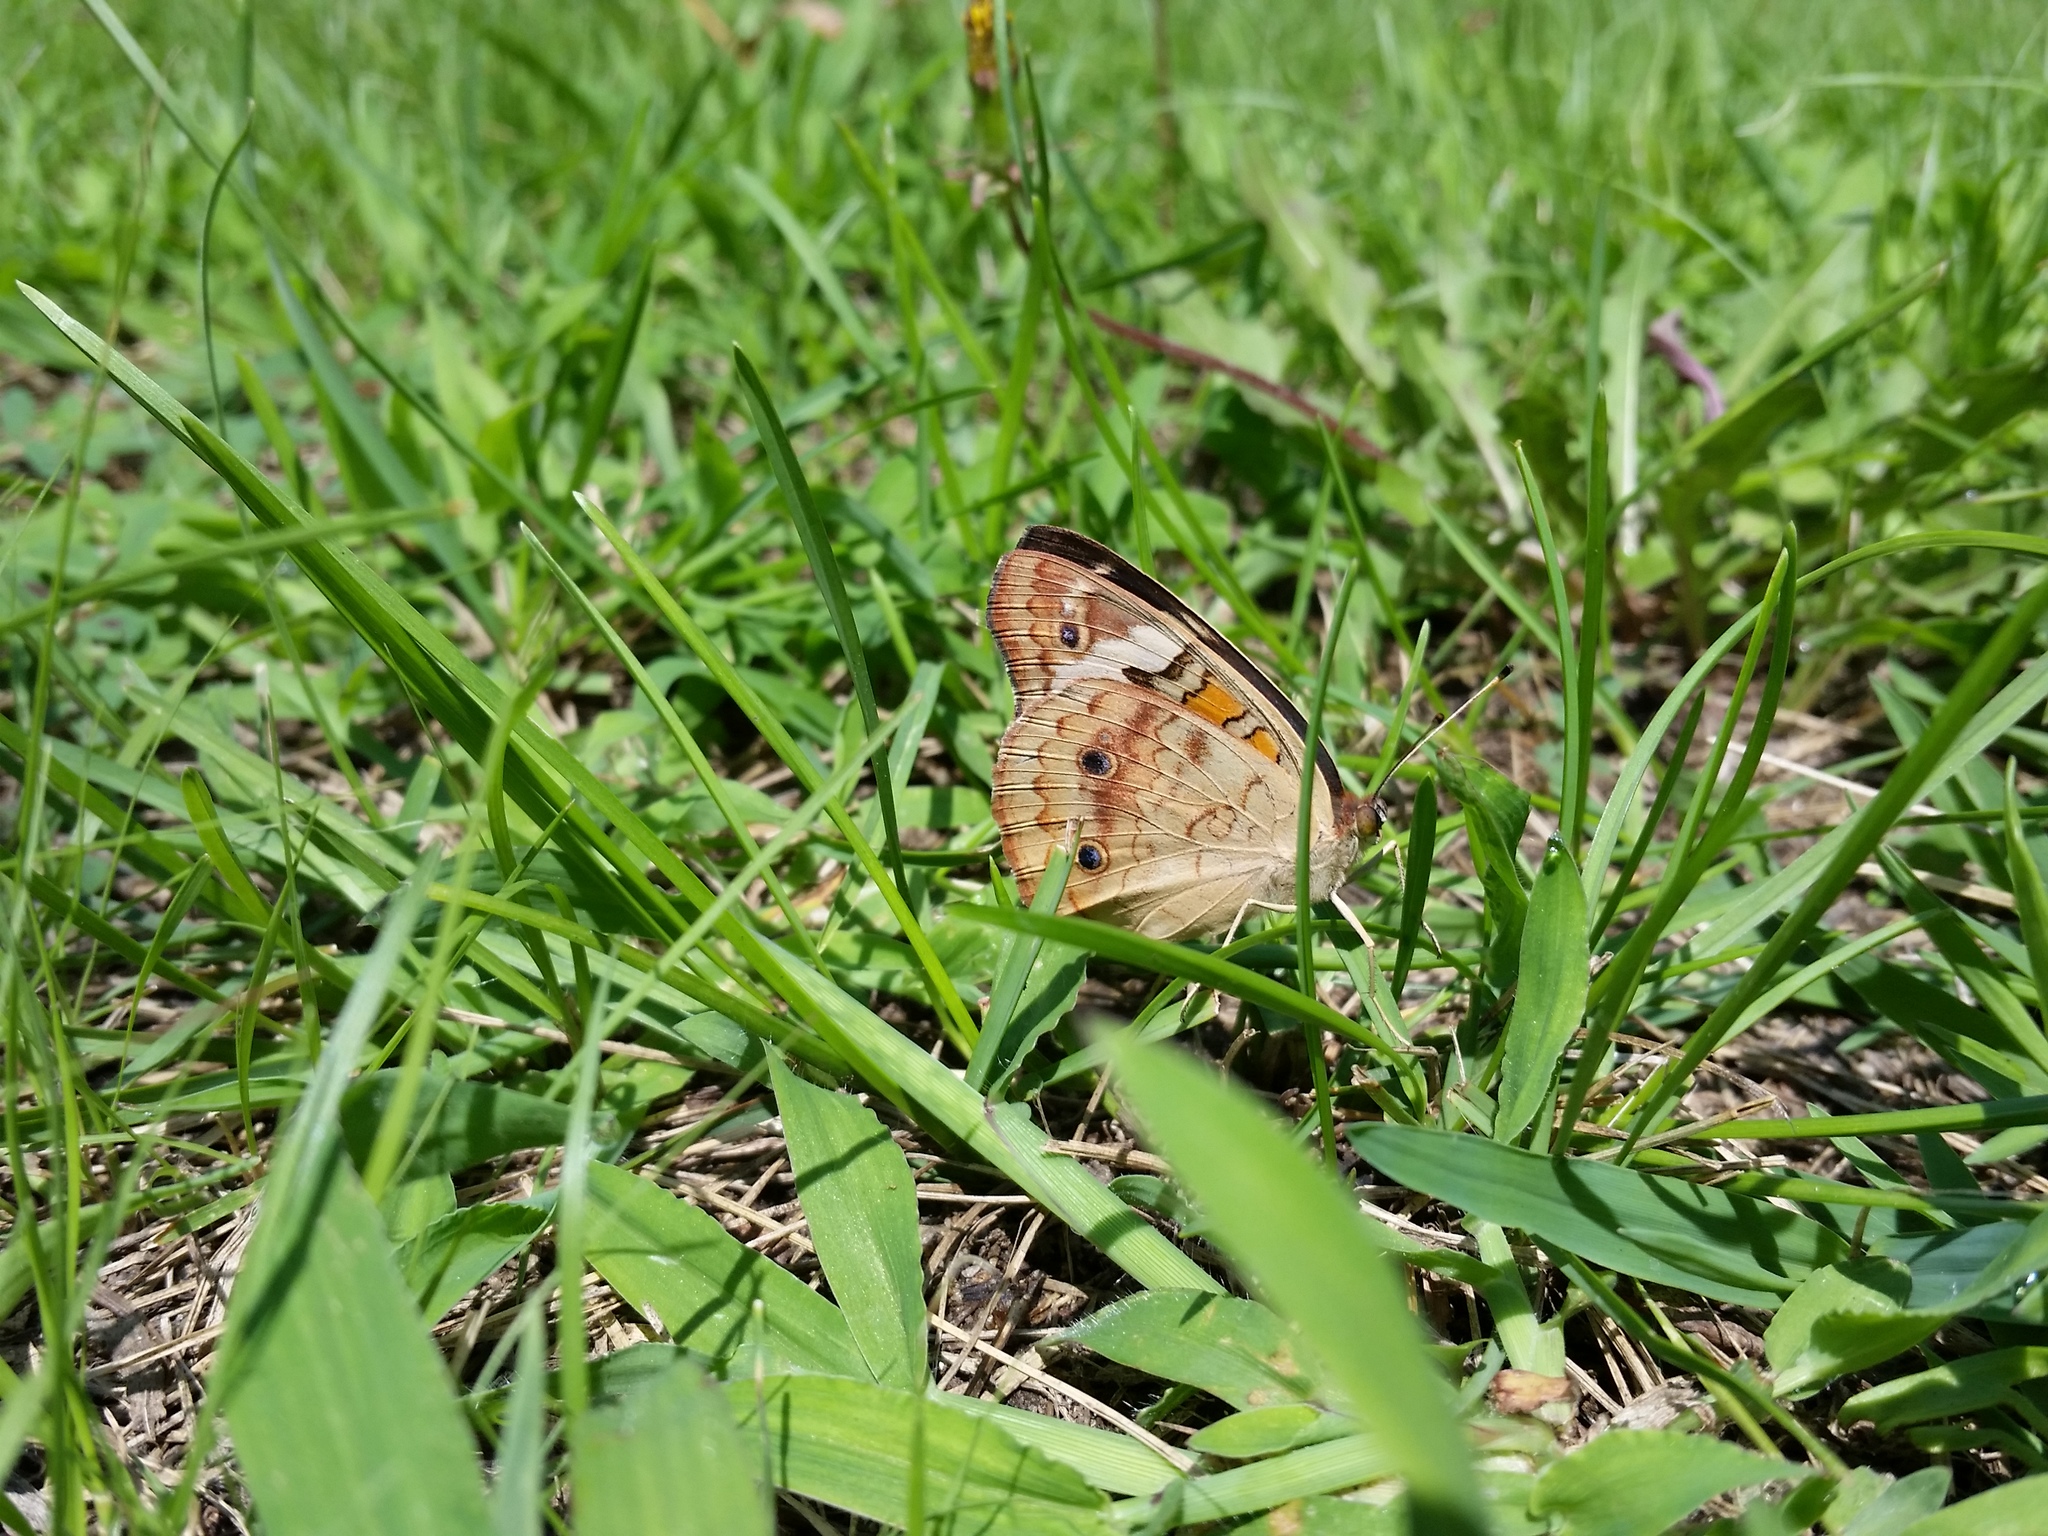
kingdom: Animalia
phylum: Arthropoda
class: Insecta
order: Lepidoptera
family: Nymphalidae
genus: Junonia
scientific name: Junonia coenia
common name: Common buckeye
